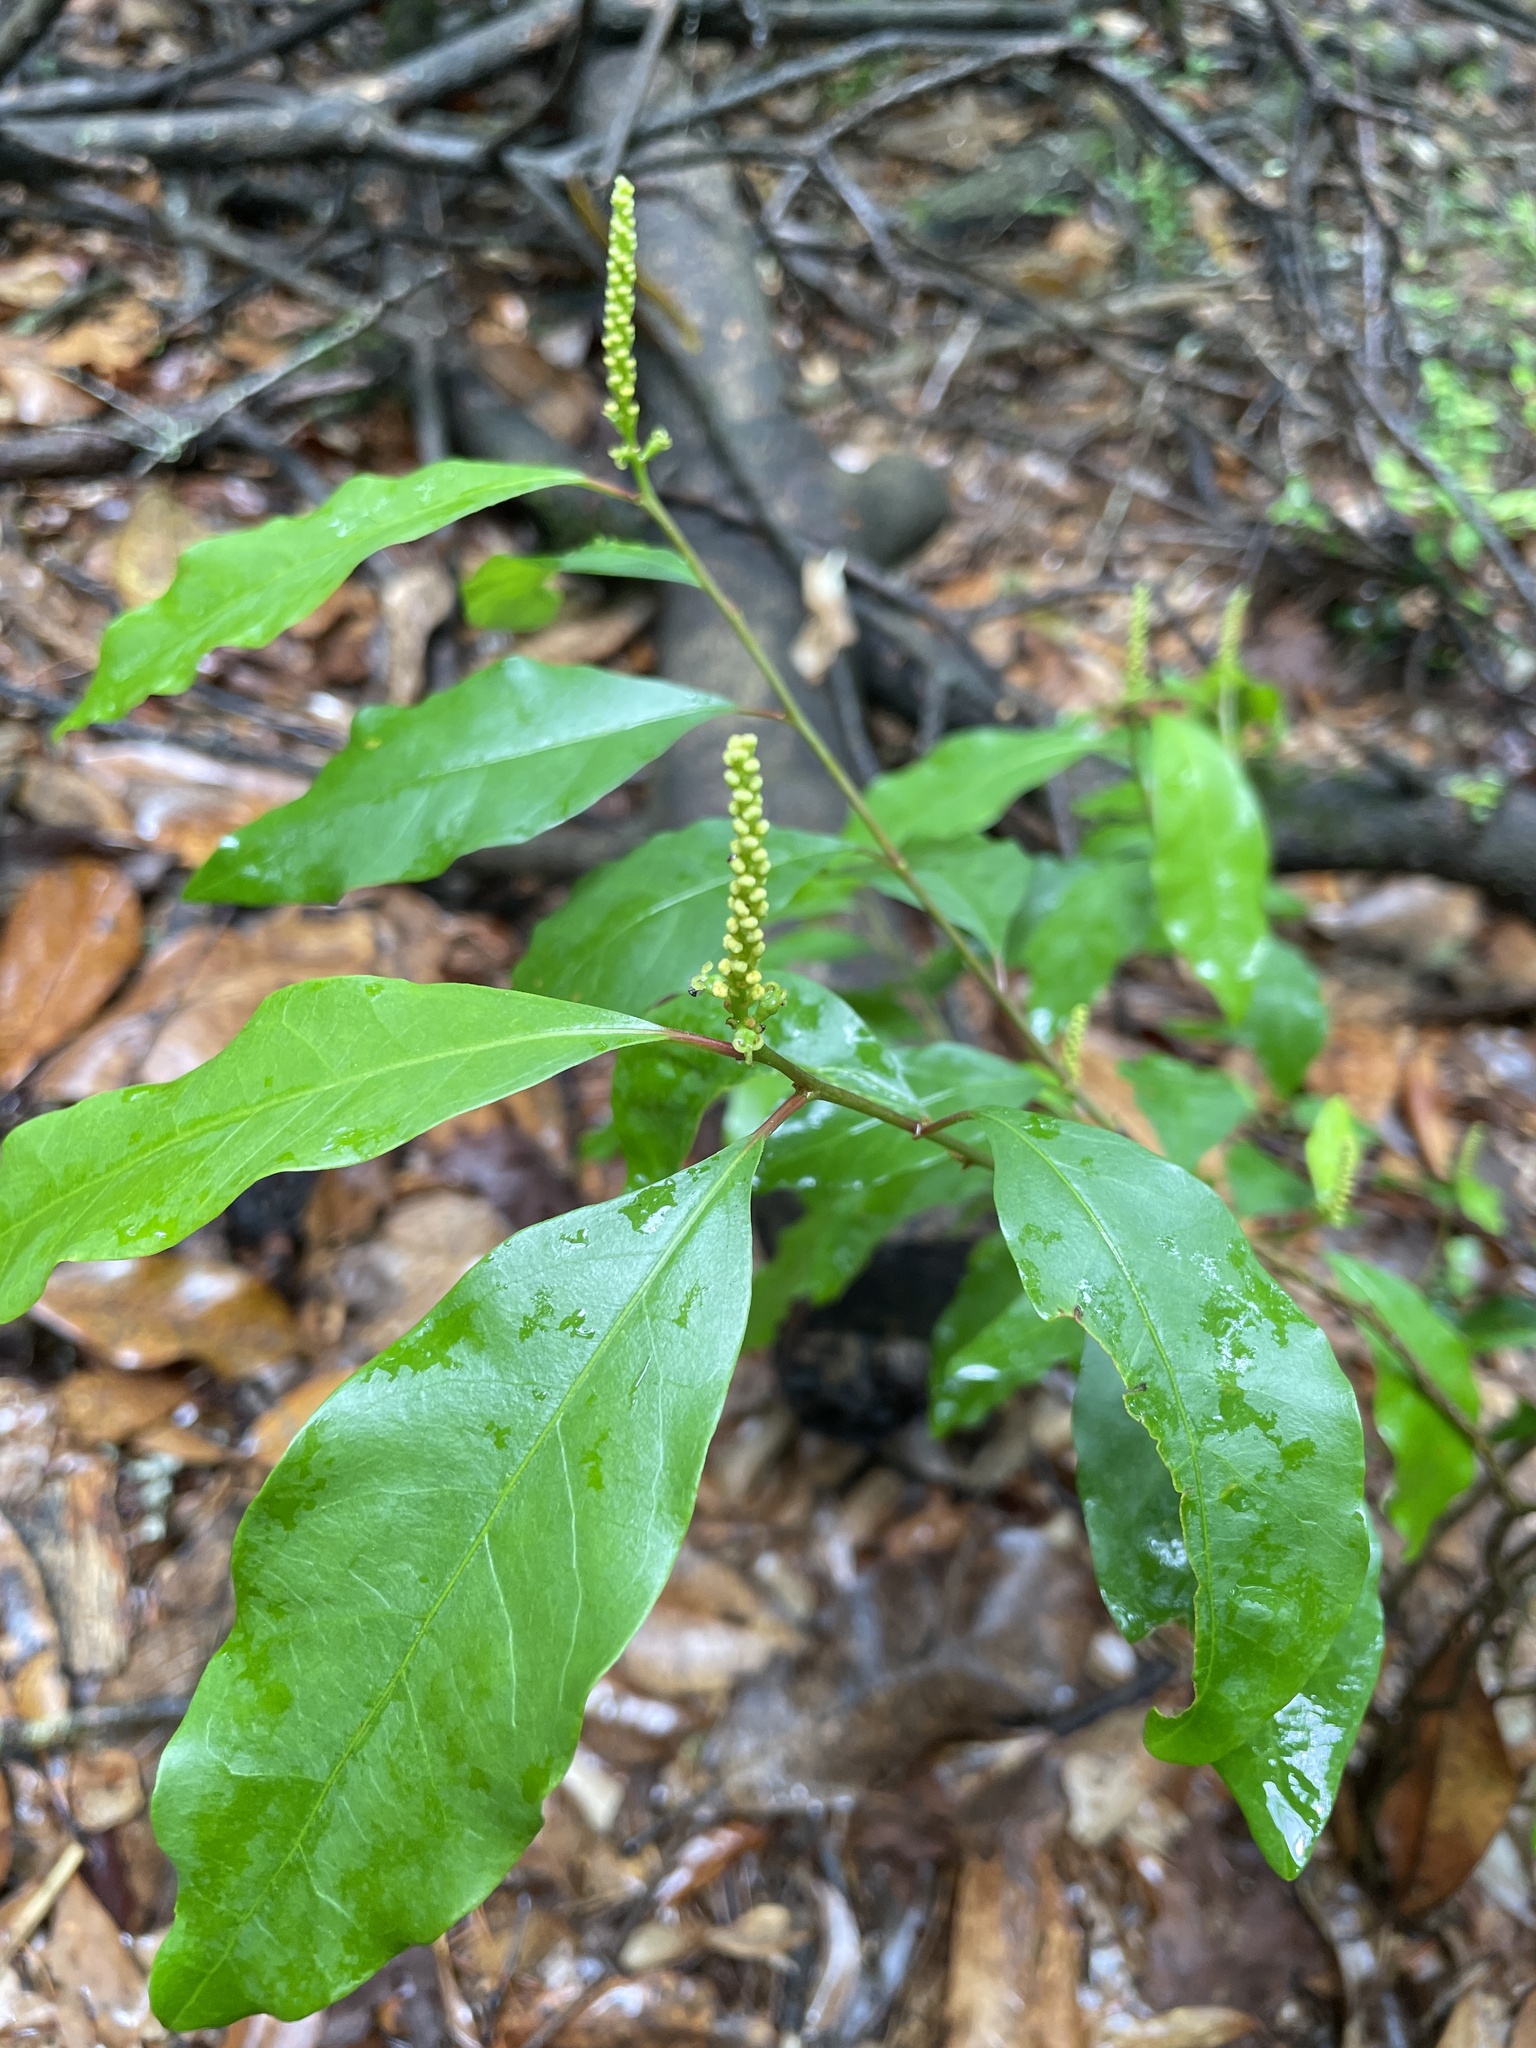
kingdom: Plantae
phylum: Tracheophyta
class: Magnoliopsida
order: Malpighiales
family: Euphorbiaceae
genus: Ditrysinia
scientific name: Ditrysinia fruticosa
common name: Gulf sebastian-bush
